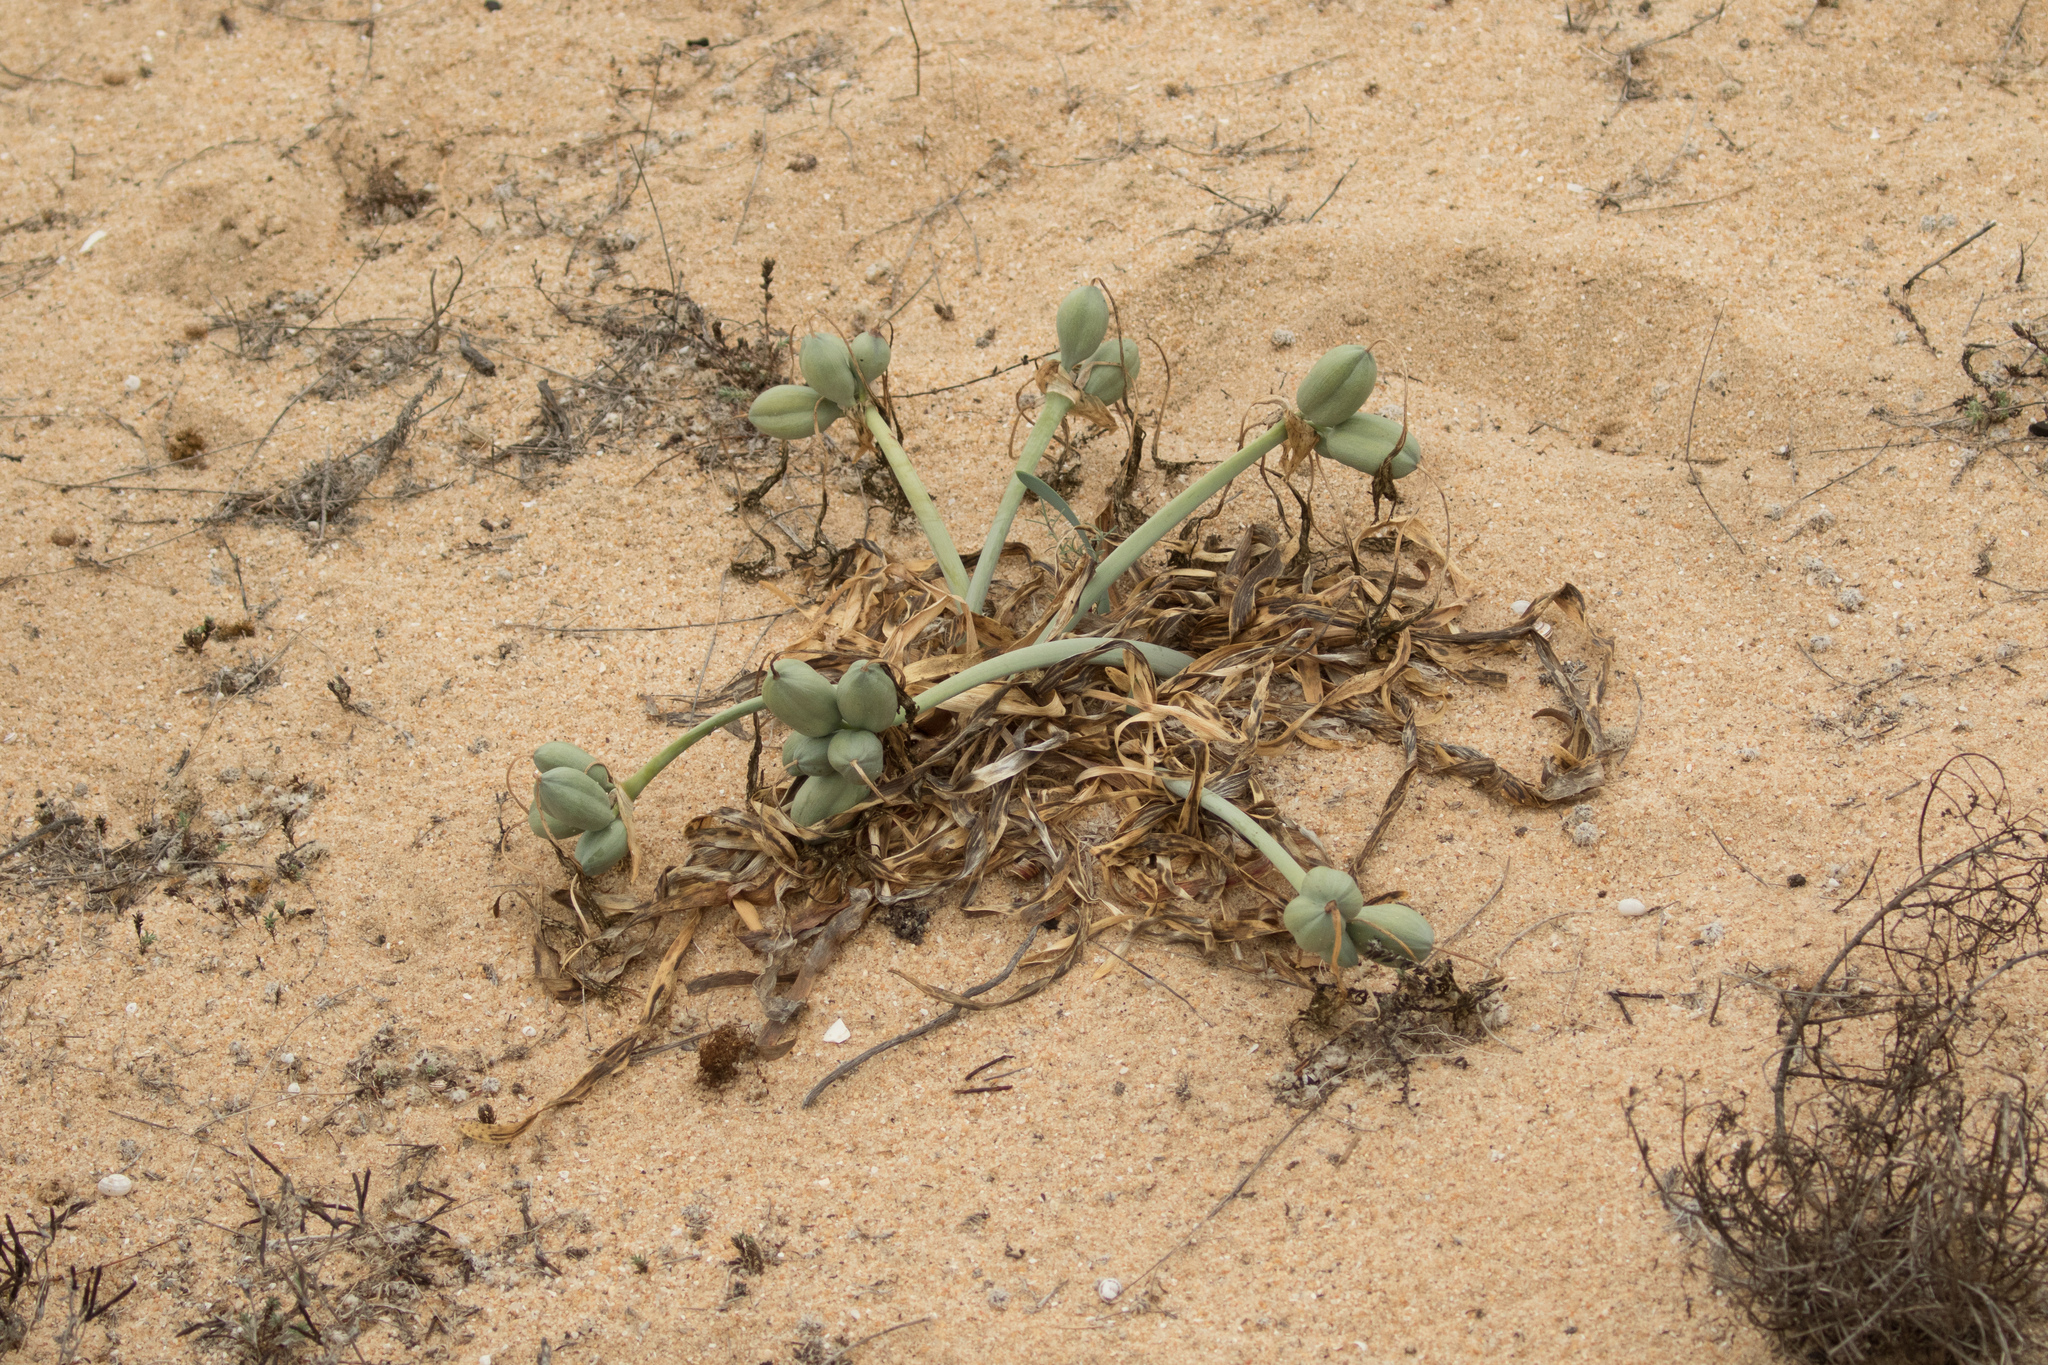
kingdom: Plantae
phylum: Tracheophyta
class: Liliopsida
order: Asparagales
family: Amaryllidaceae
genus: Pancratium
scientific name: Pancratium maritimum
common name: Sea-daffodil
